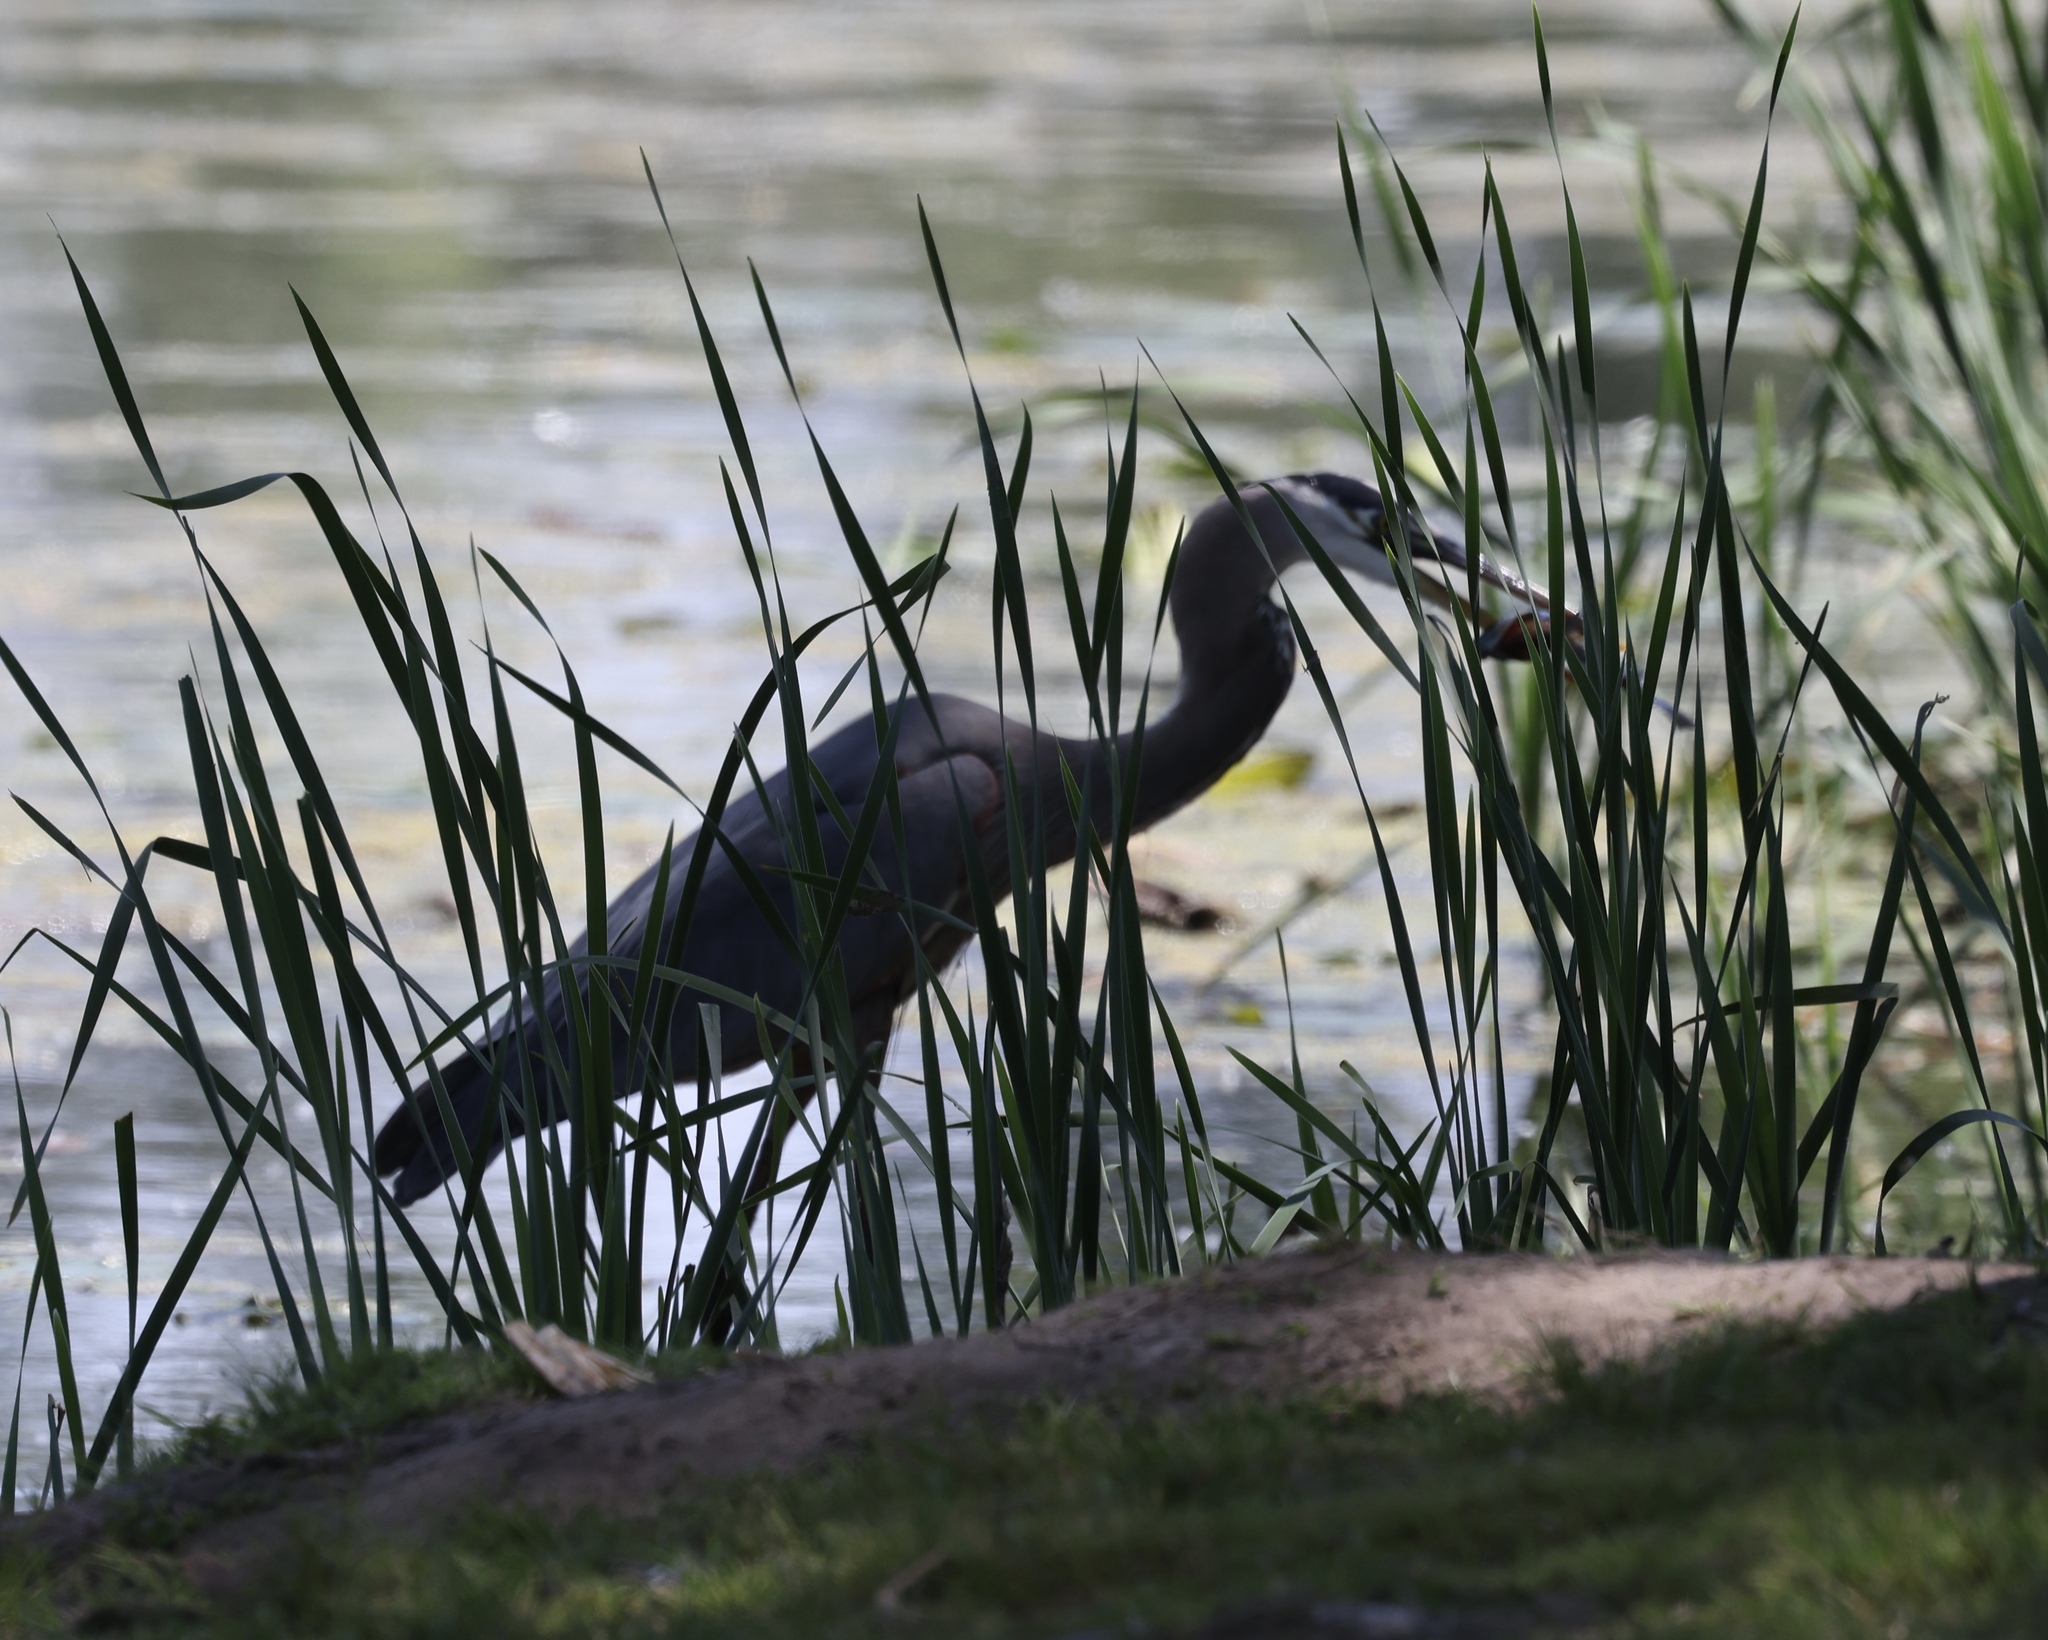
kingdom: Animalia
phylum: Chordata
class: Aves
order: Pelecaniformes
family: Ardeidae
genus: Ardea
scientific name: Ardea herodias
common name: Great blue heron
